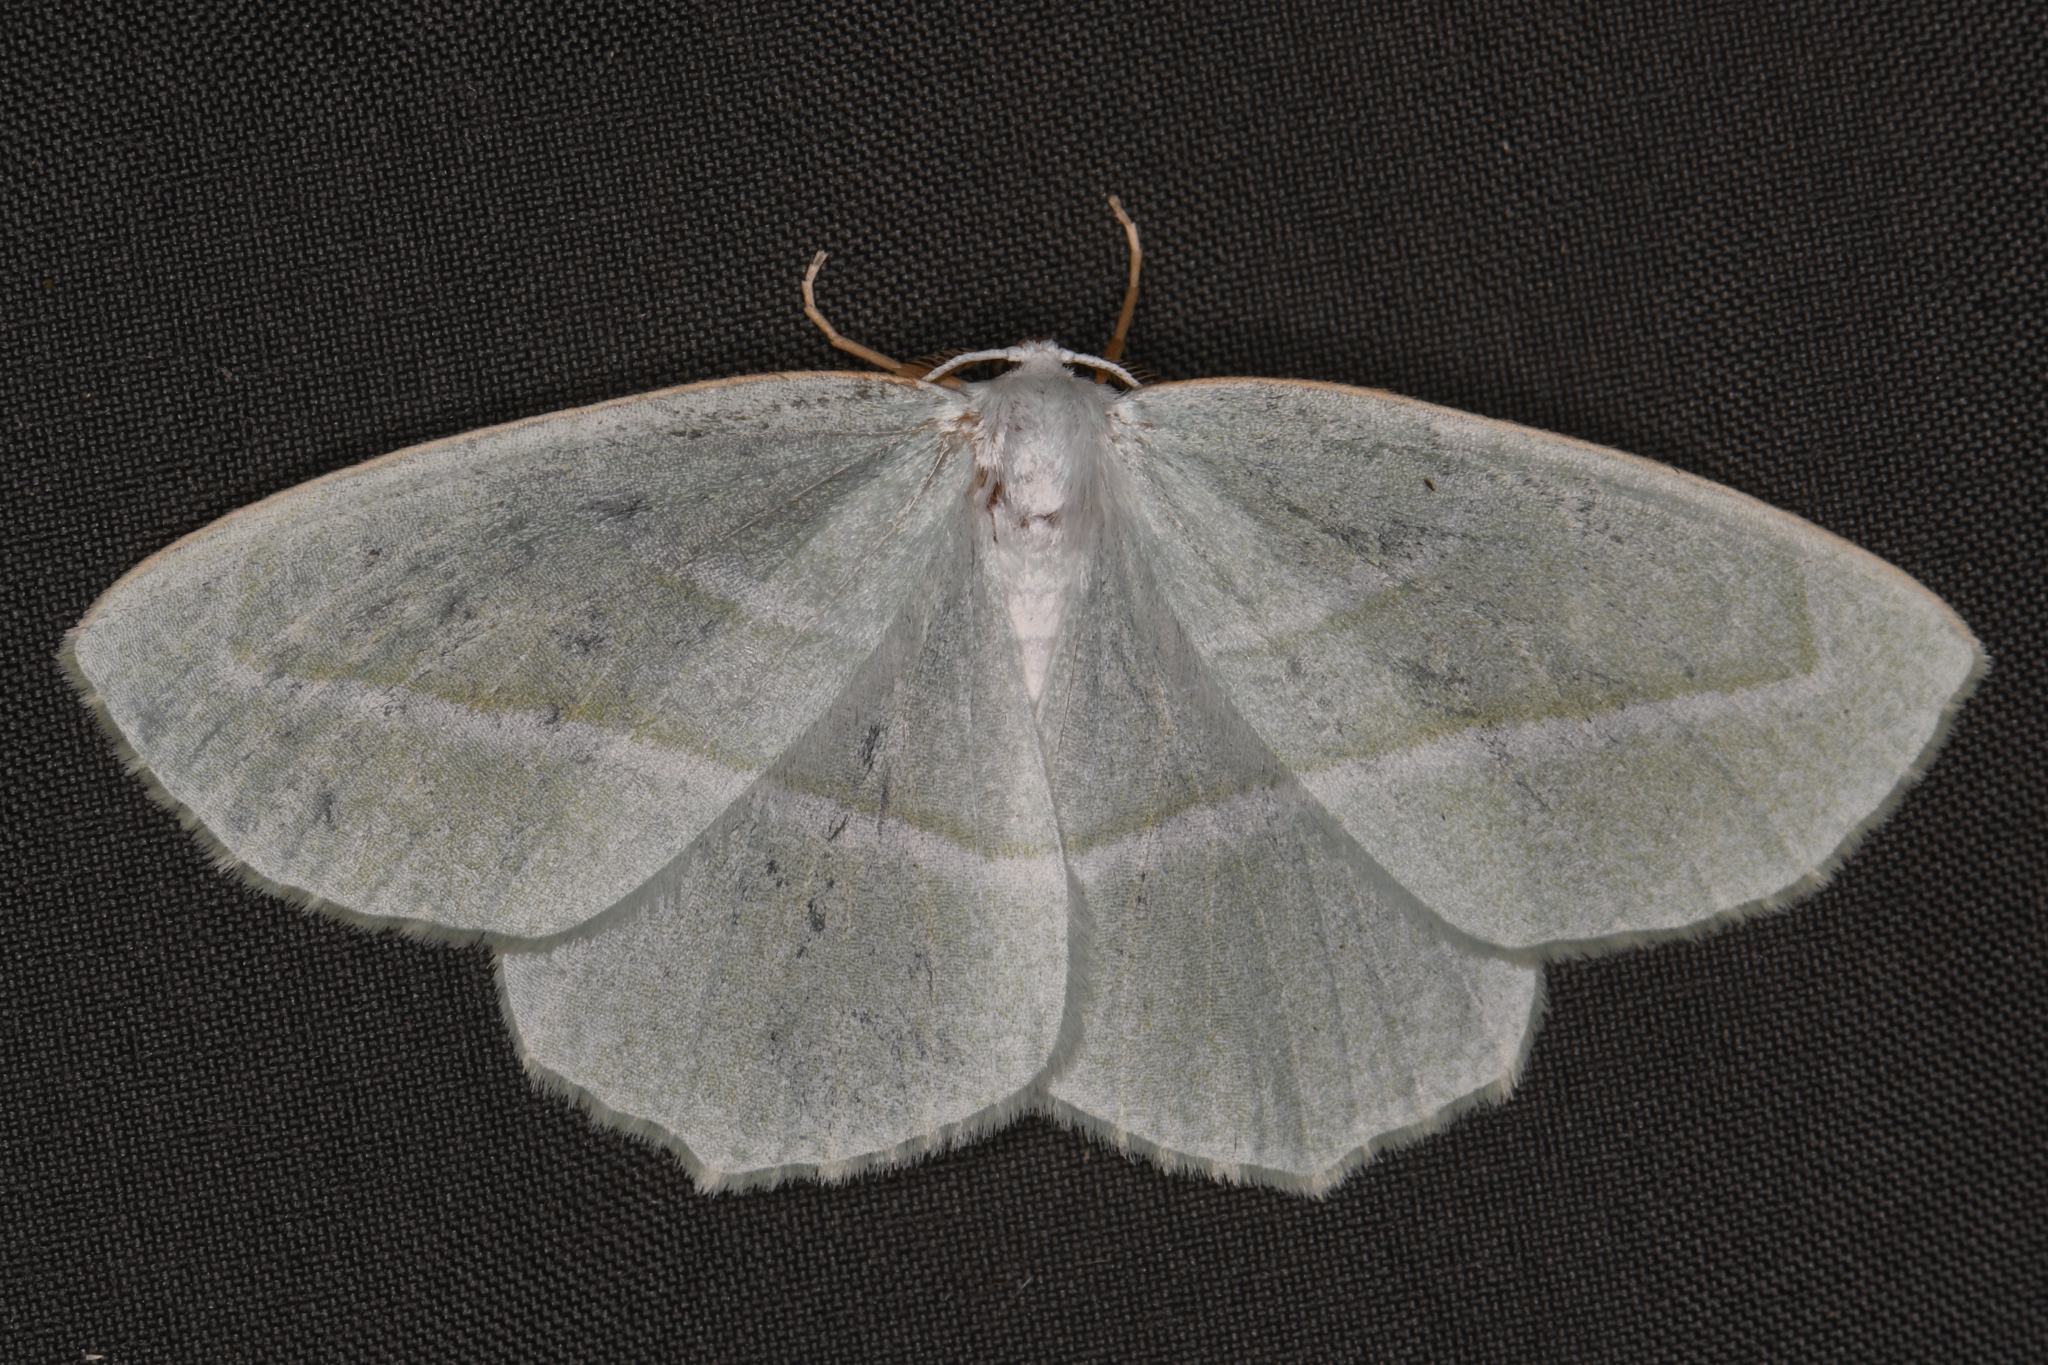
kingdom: Animalia
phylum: Arthropoda
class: Insecta
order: Lepidoptera
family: Geometridae
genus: Campaea
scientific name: Campaea perlata
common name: Fringed looper
